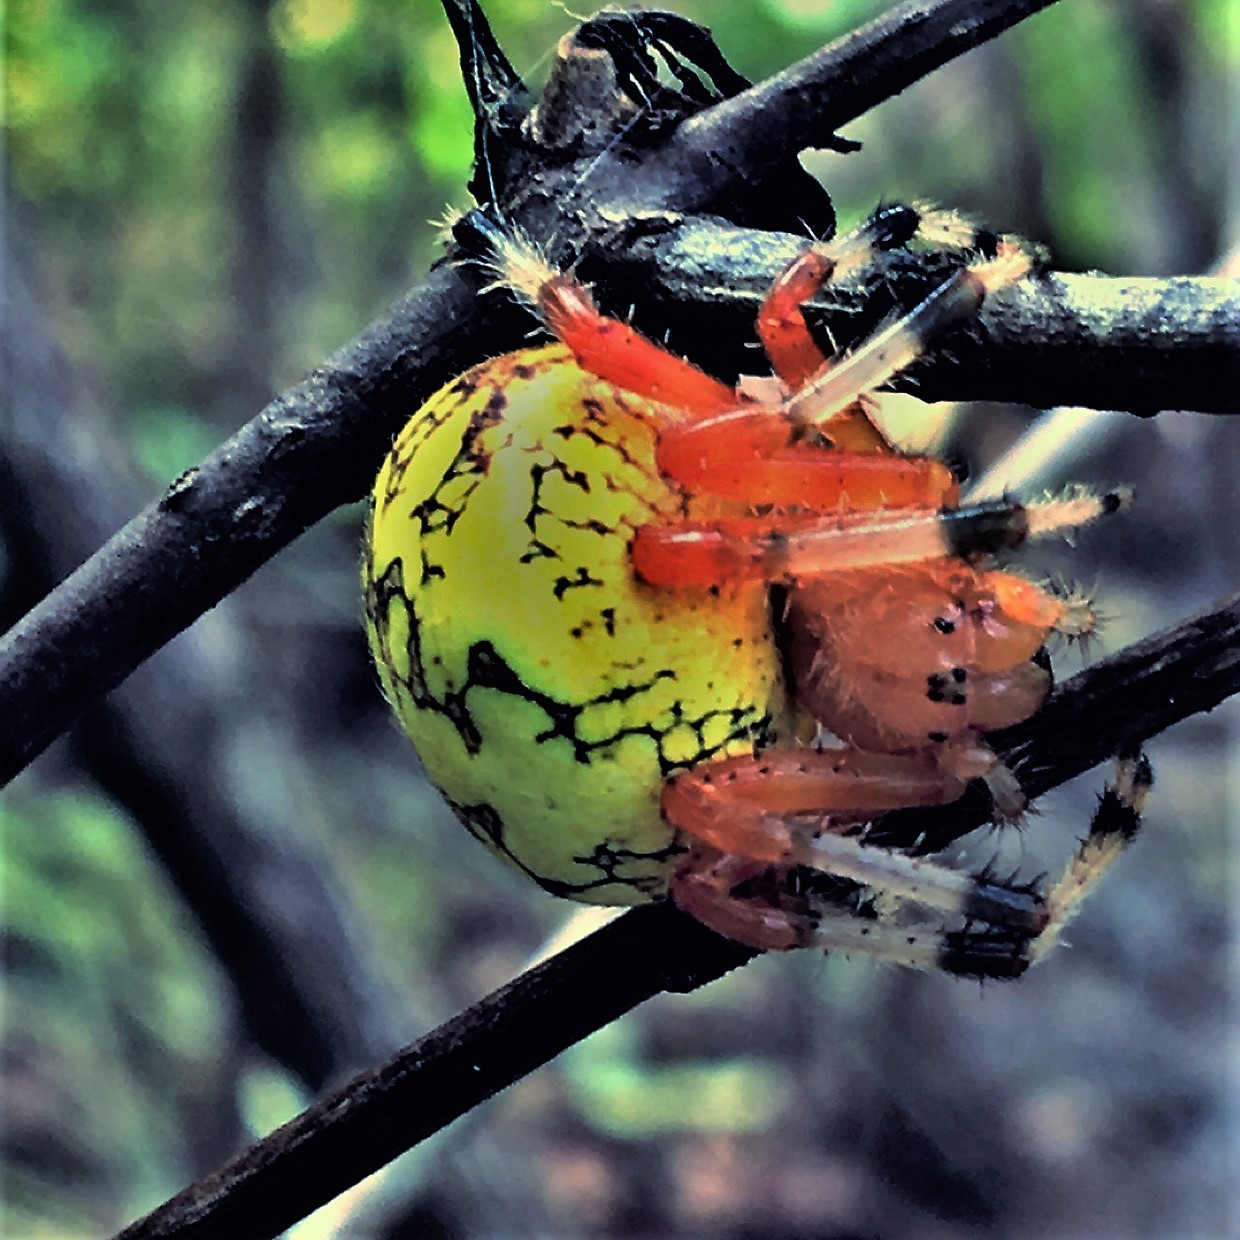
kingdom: Animalia
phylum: Arthropoda
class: Arachnida
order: Araneae
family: Araneidae
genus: Araneus
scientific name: Araneus marmoreus
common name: Marbled orbweaver
